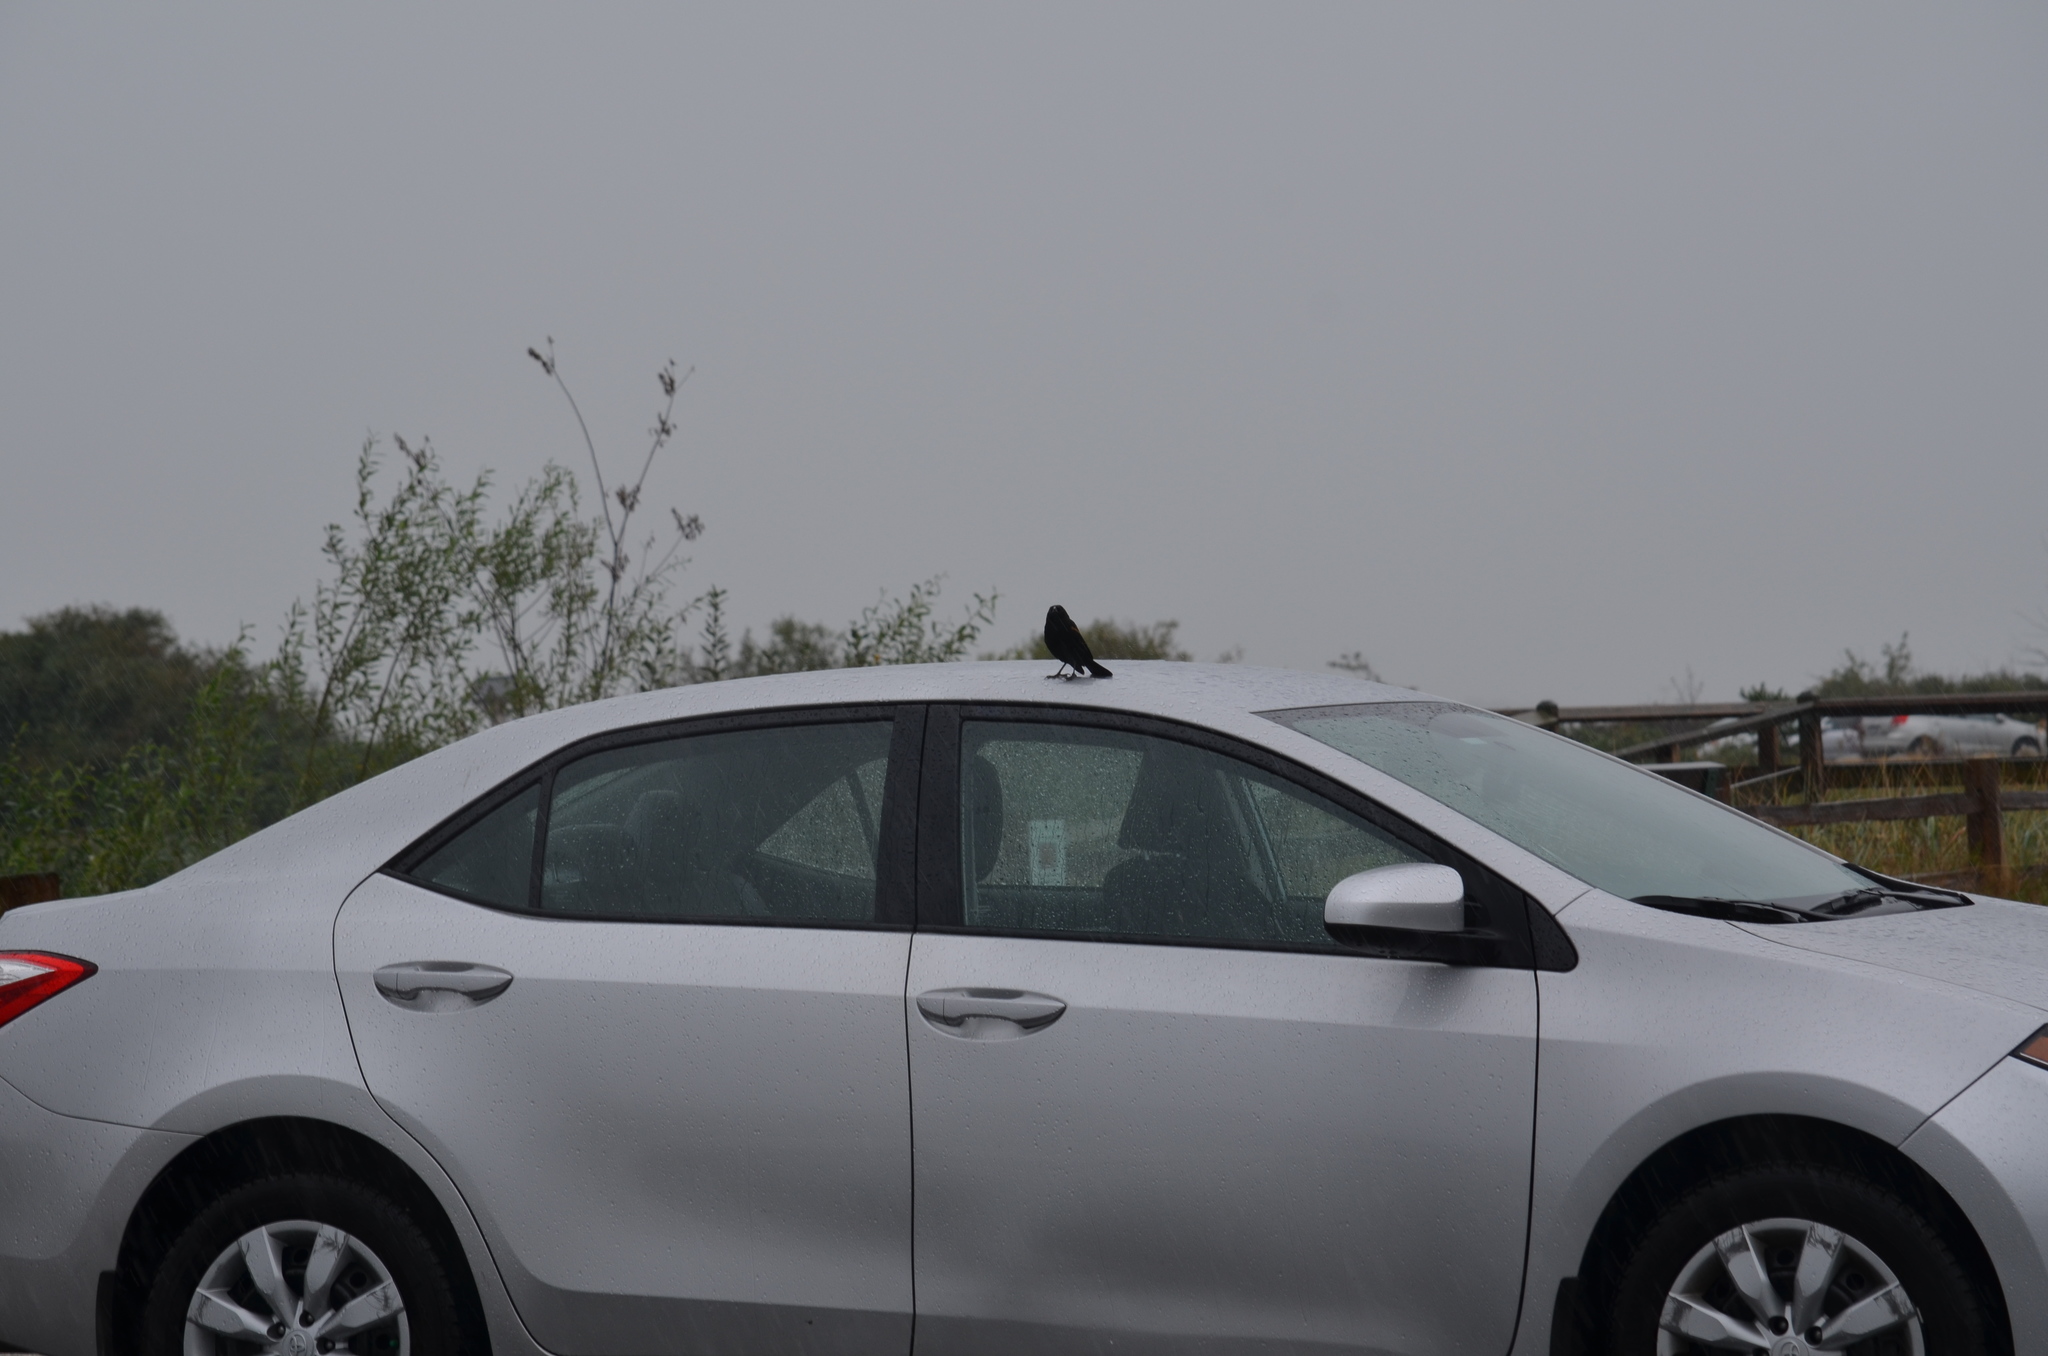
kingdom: Animalia
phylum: Chordata
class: Aves
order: Passeriformes
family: Icteridae
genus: Agelaius
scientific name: Agelaius phoeniceus
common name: Red-winged blackbird
